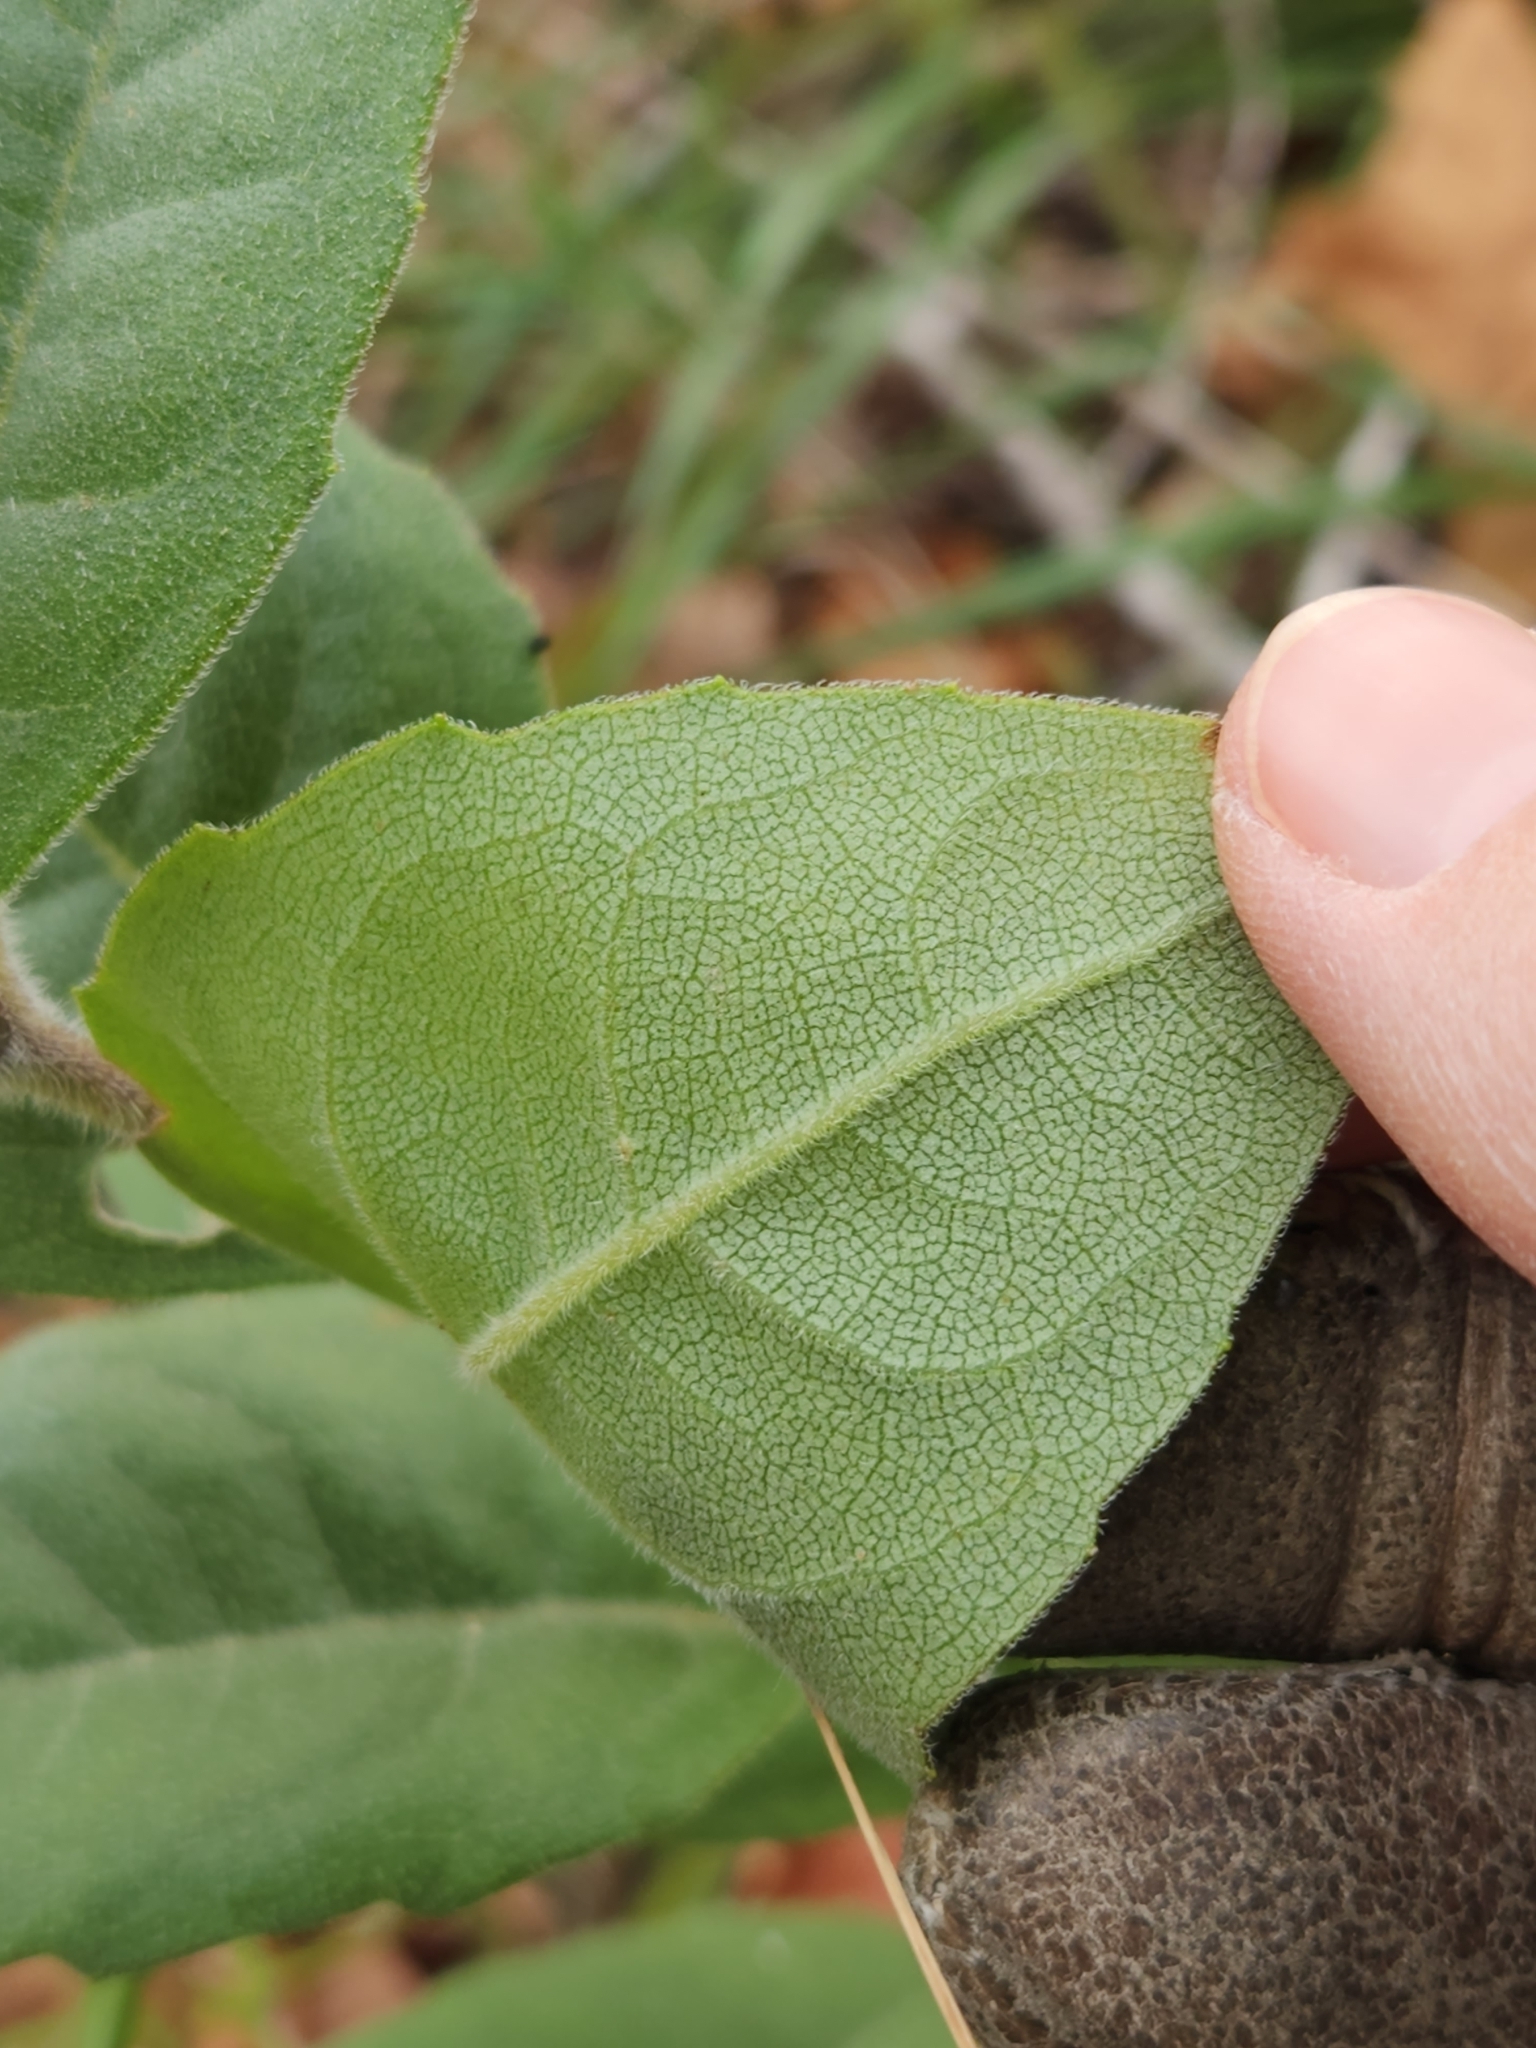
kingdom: Plantae
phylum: Tracheophyta
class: Magnoliopsida
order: Asterales
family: Asteraceae
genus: Silphium
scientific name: Silphium asteriscus
